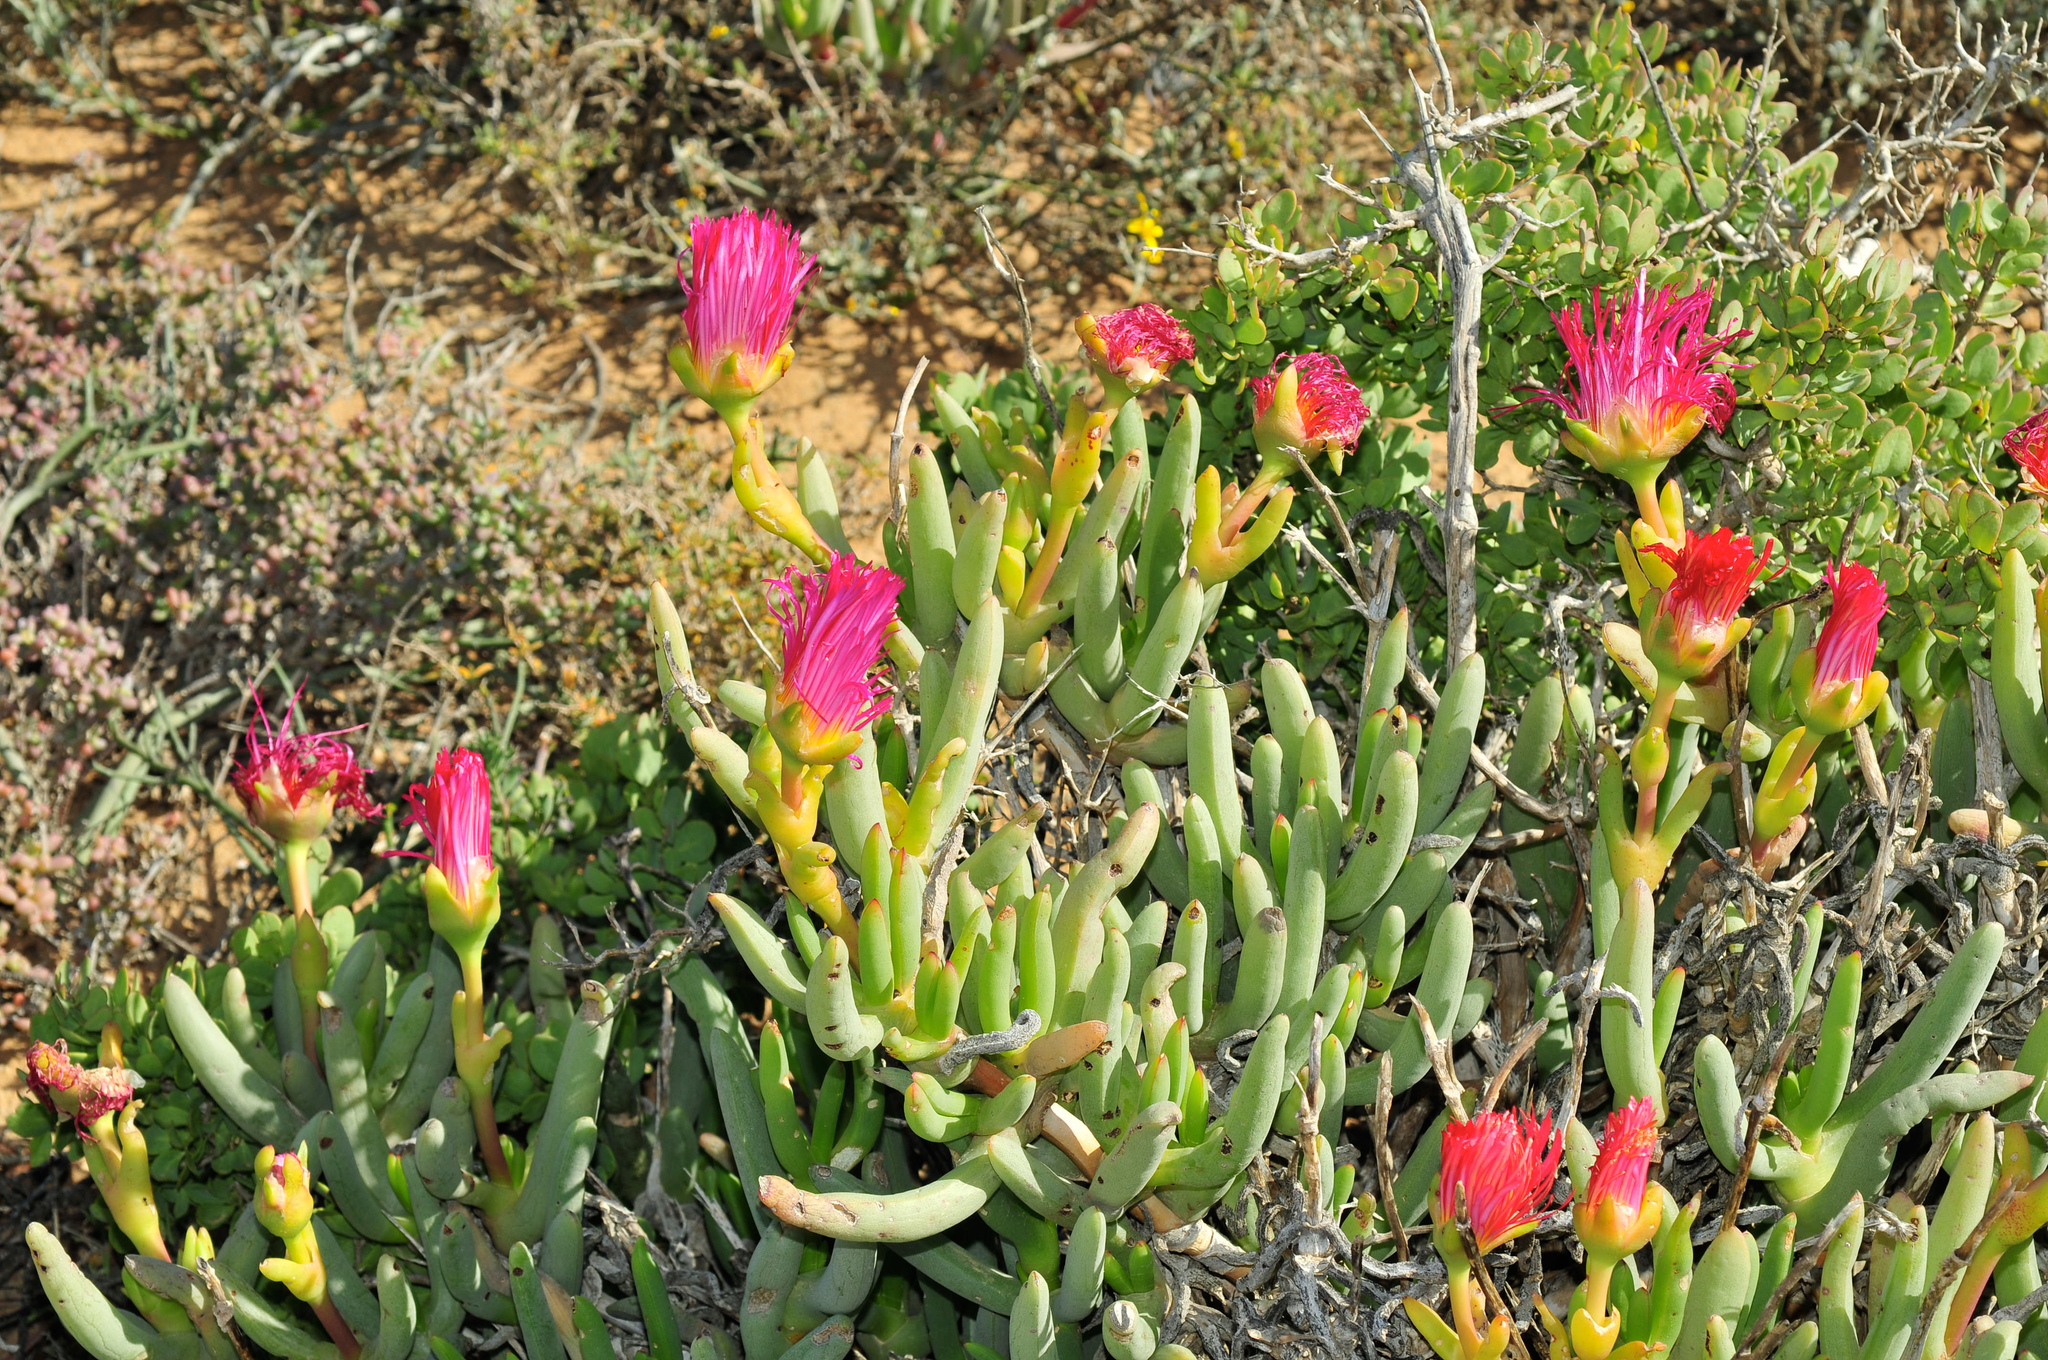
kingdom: Plantae
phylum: Tracheophyta
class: Magnoliopsida
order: Caryophyllales
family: Aizoaceae
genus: Jordaaniella
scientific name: Jordaaniella spongiosa
